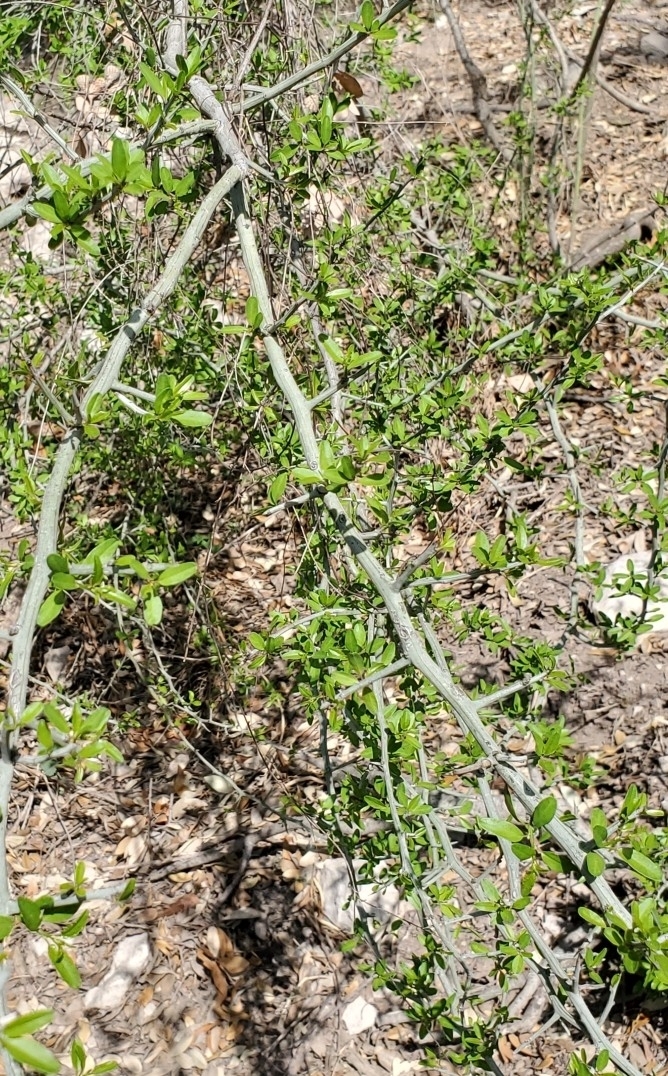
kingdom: Plantae
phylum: Tracheophyta
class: Magnoliopsida
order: Rosales
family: Rhamnaceae
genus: Sarcomphalus
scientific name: Sarcomphalus obtusifolius
